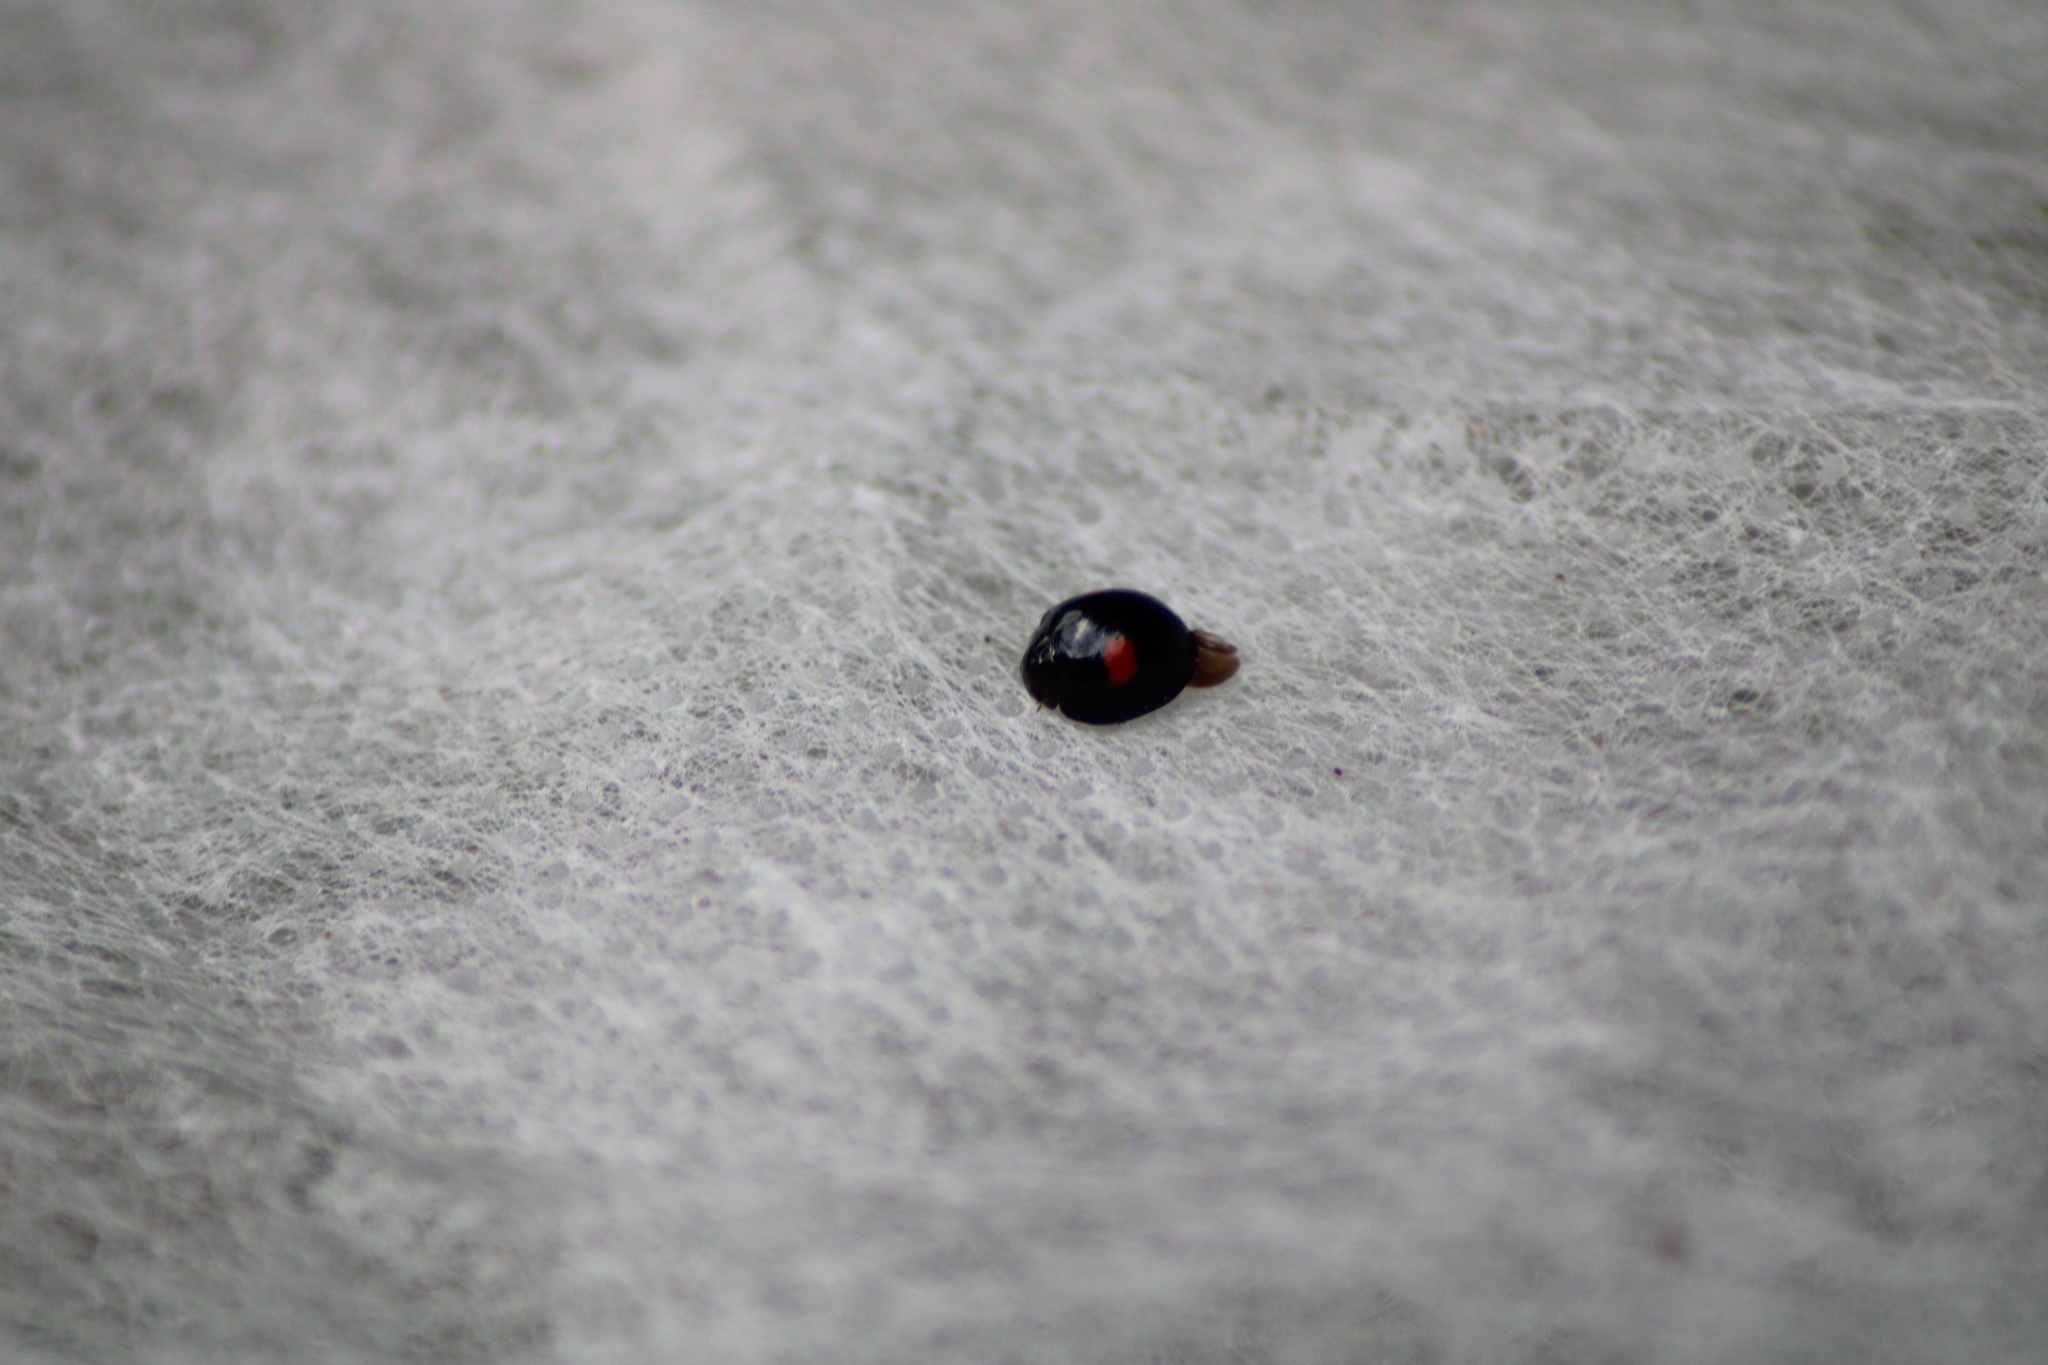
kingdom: Animalia
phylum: Arthropoda
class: Insecta
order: Coleoptera
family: Coccinellidae
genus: Chilocorus
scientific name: Chilocorus renipustulatus
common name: Kidney-spot ladybird
